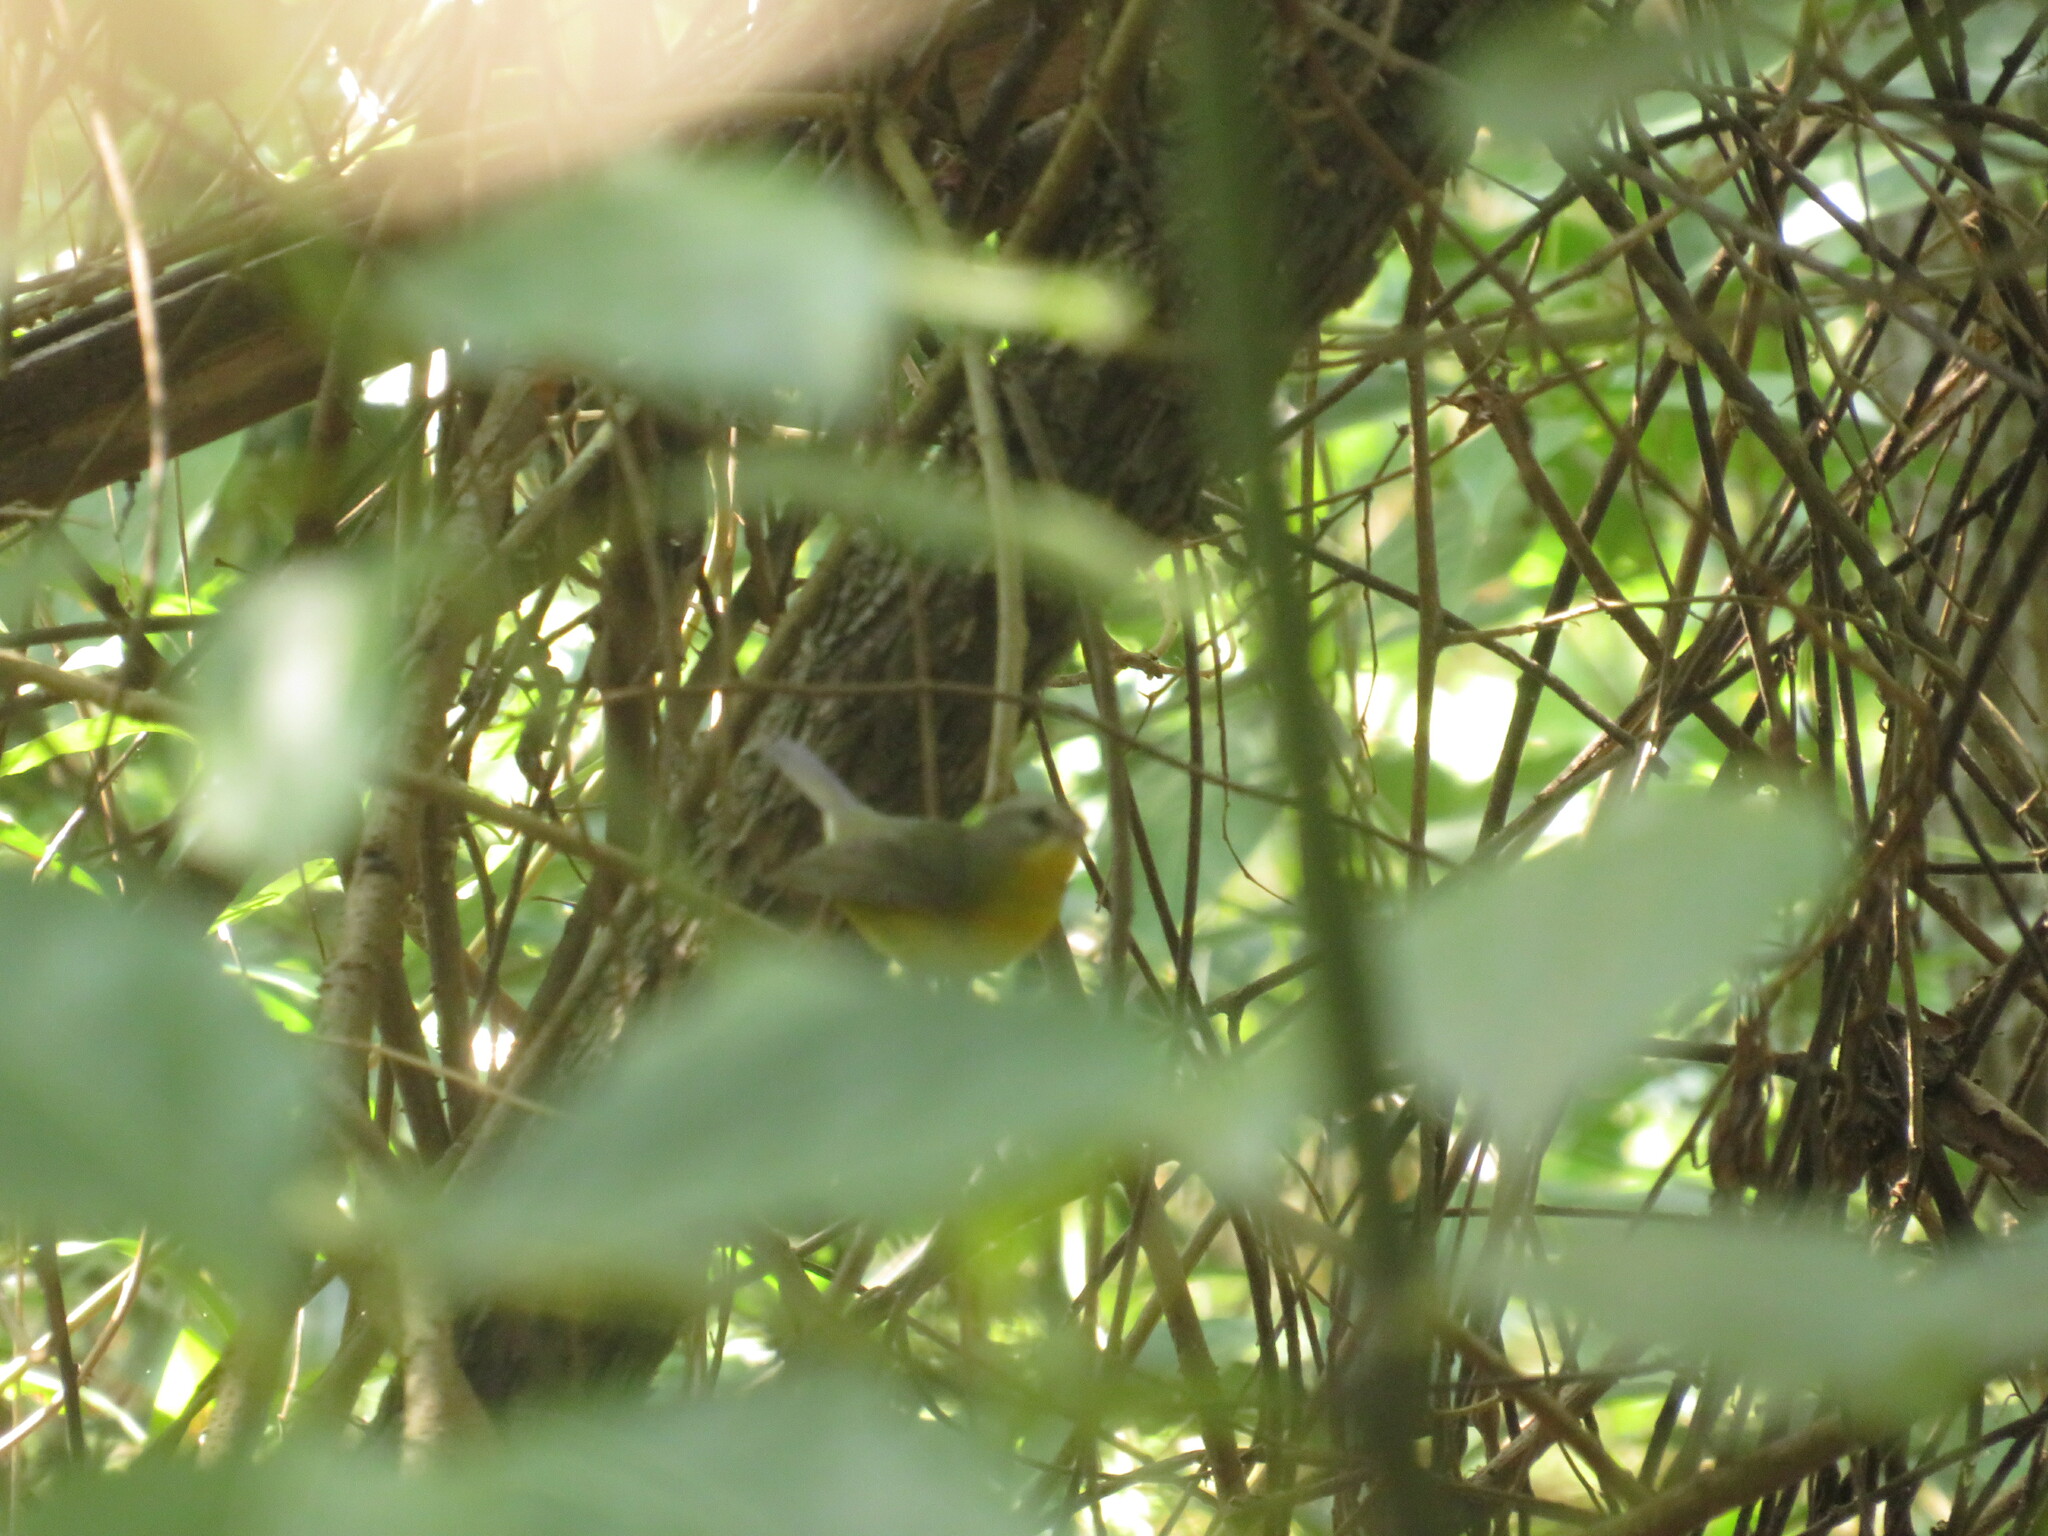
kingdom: Animalia
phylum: Chordata
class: Aves
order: Passeriformes
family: Parulidae
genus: Basileuterus
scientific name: Basileuterus culicivorus
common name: Golden-crowned warbler
